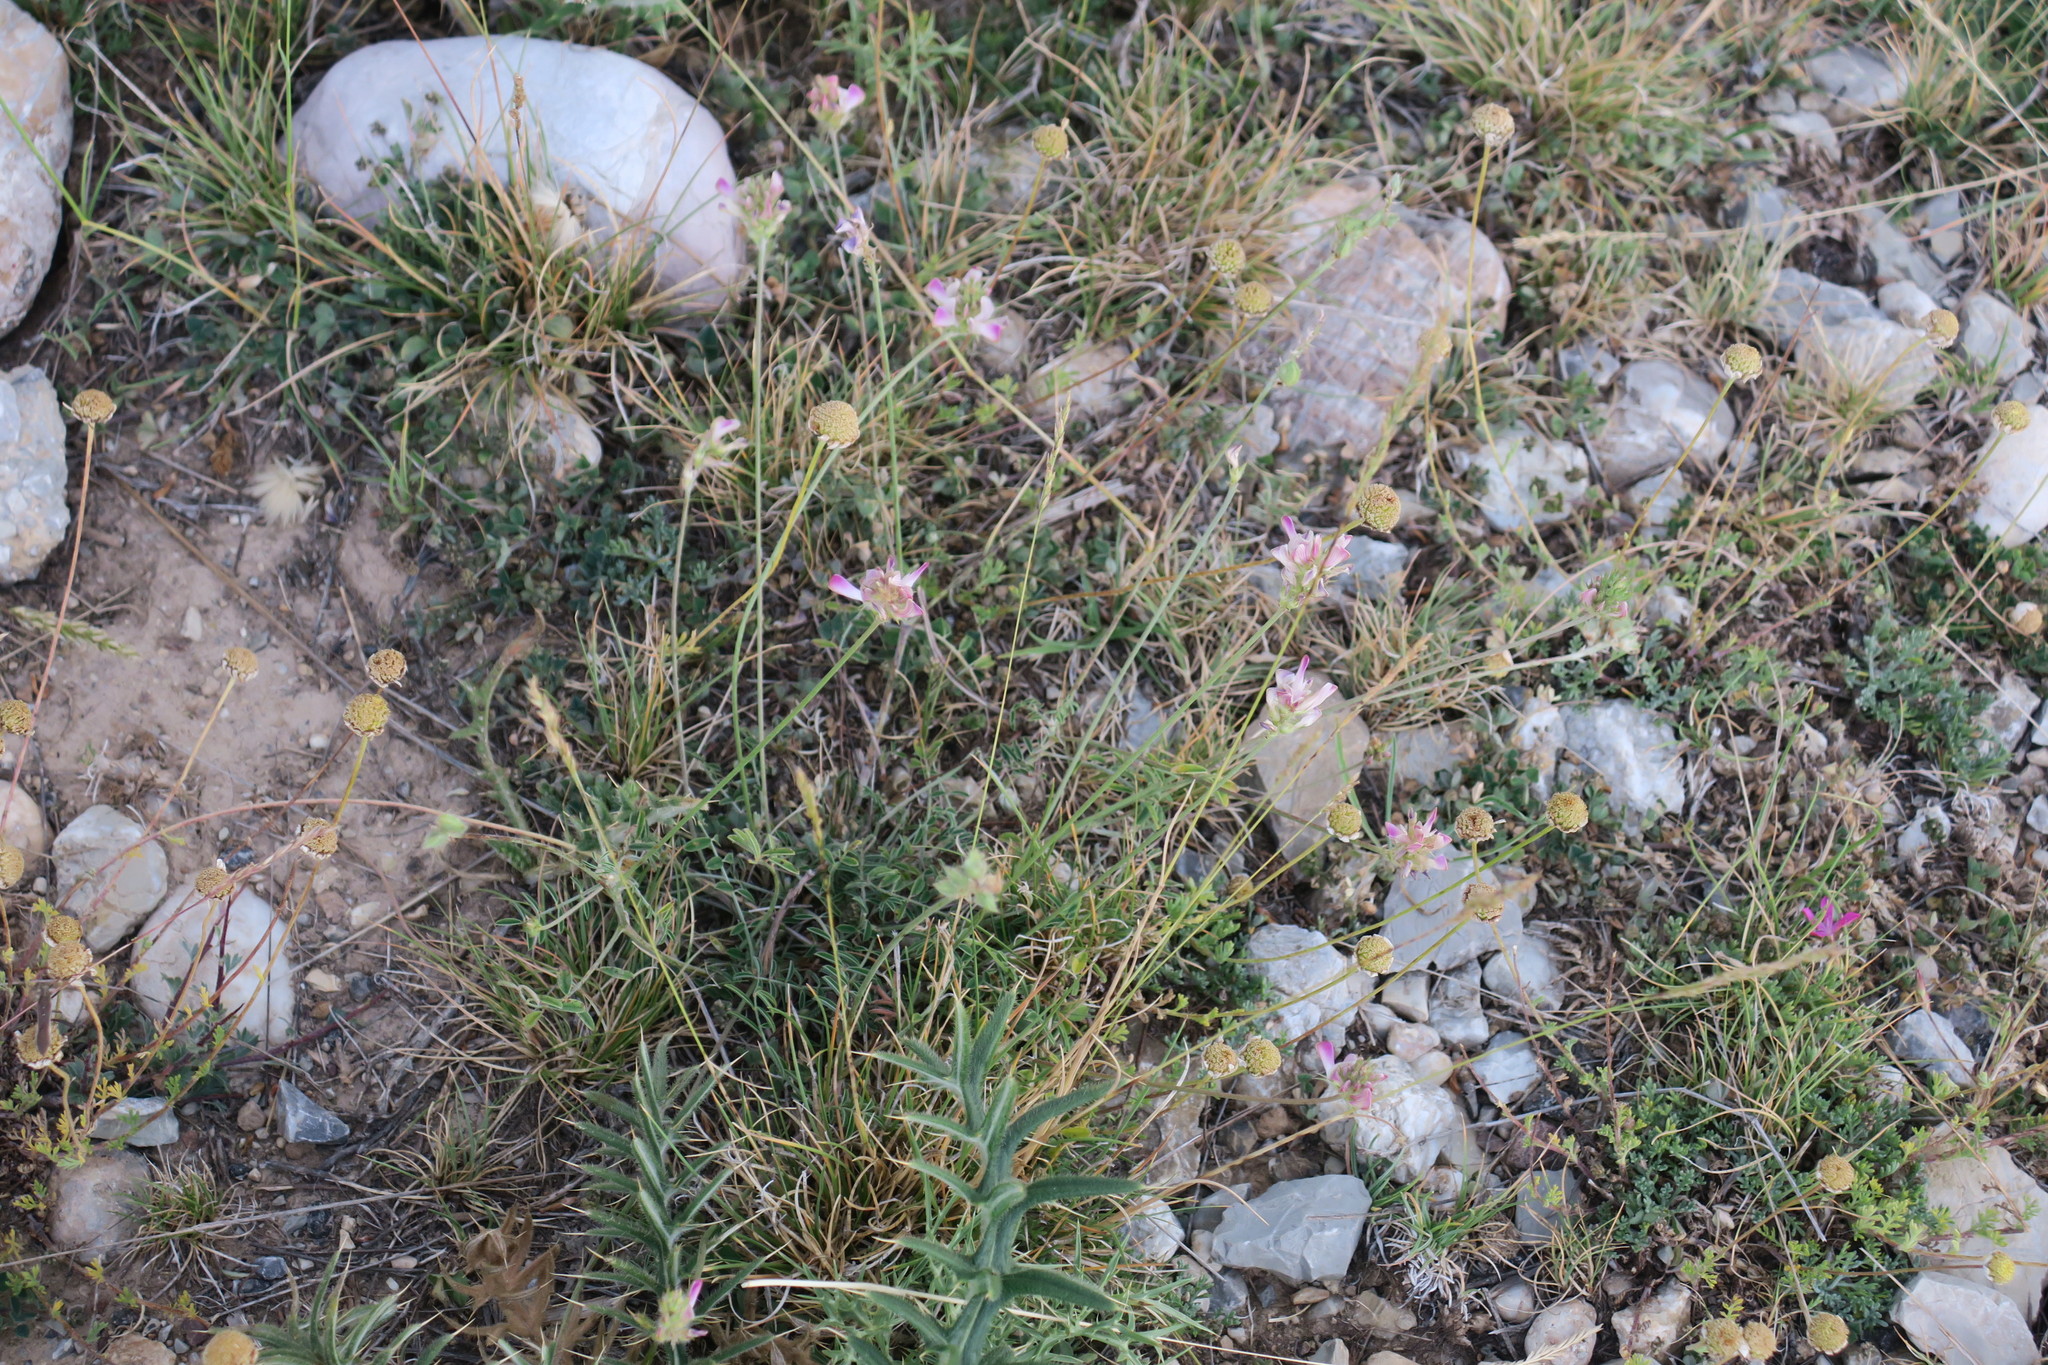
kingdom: Plantae
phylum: Tracheophyta
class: Magnoliopsida
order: Fabales
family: Fabaceae
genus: Onobrychis
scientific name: Onobrychis alba
